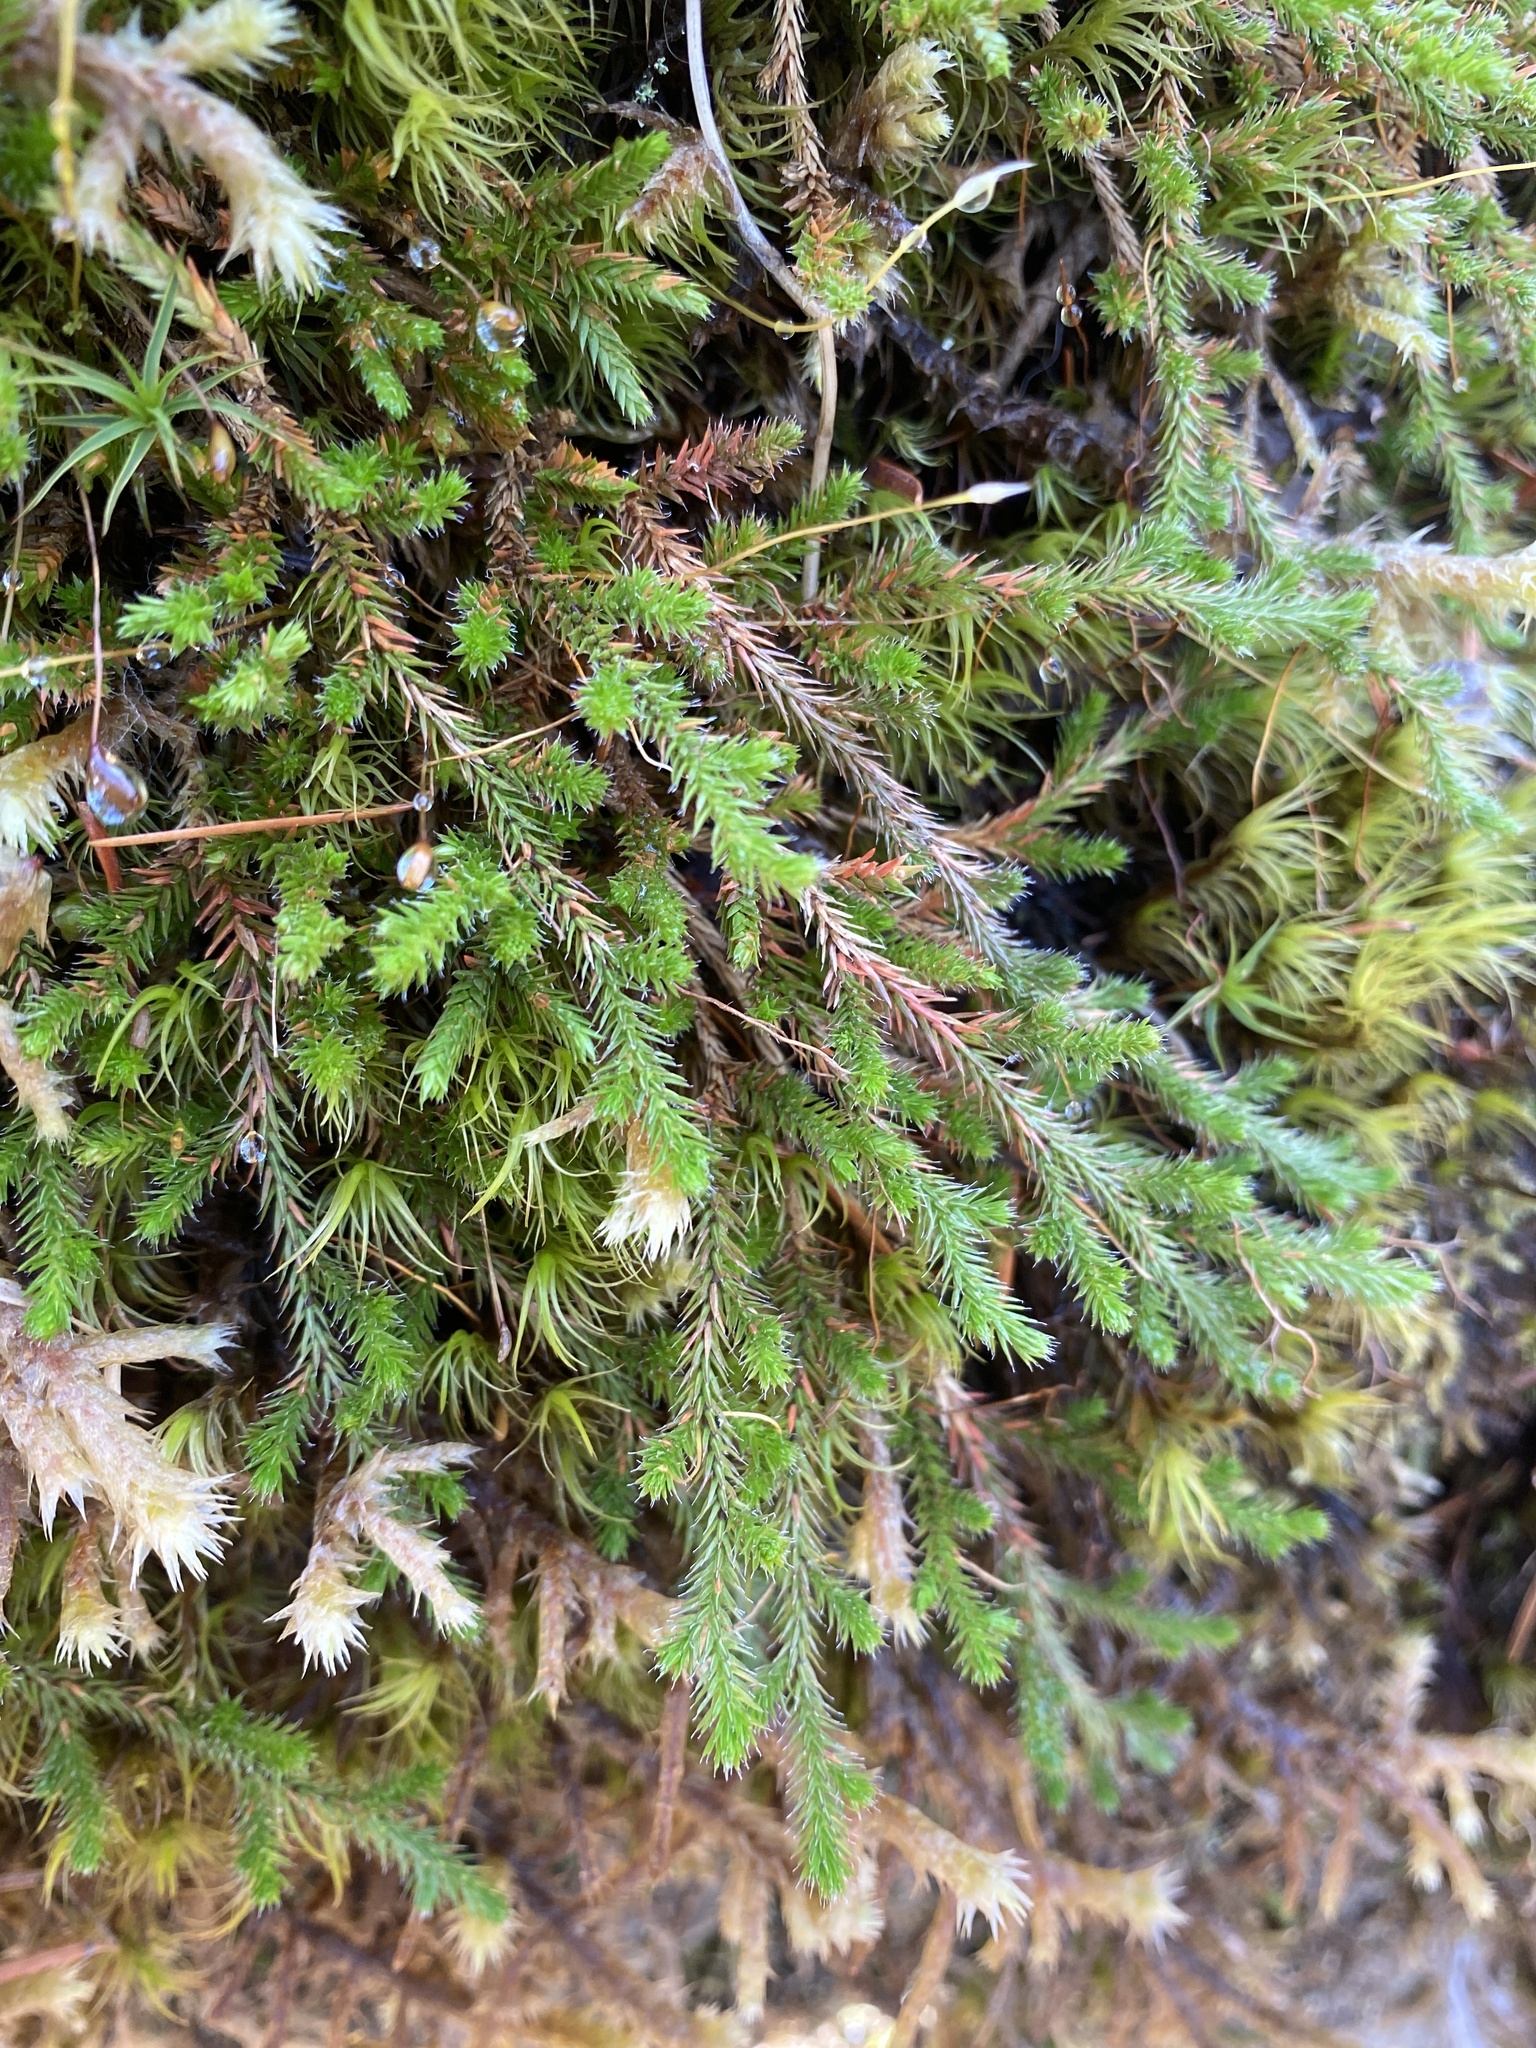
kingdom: Plantae
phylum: Tracheophyta
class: Lycopodiopsida
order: Selaginellales
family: Selaginellaceae
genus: Selaginella
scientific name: Selaginella wallacei
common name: Wallace's selaginella
